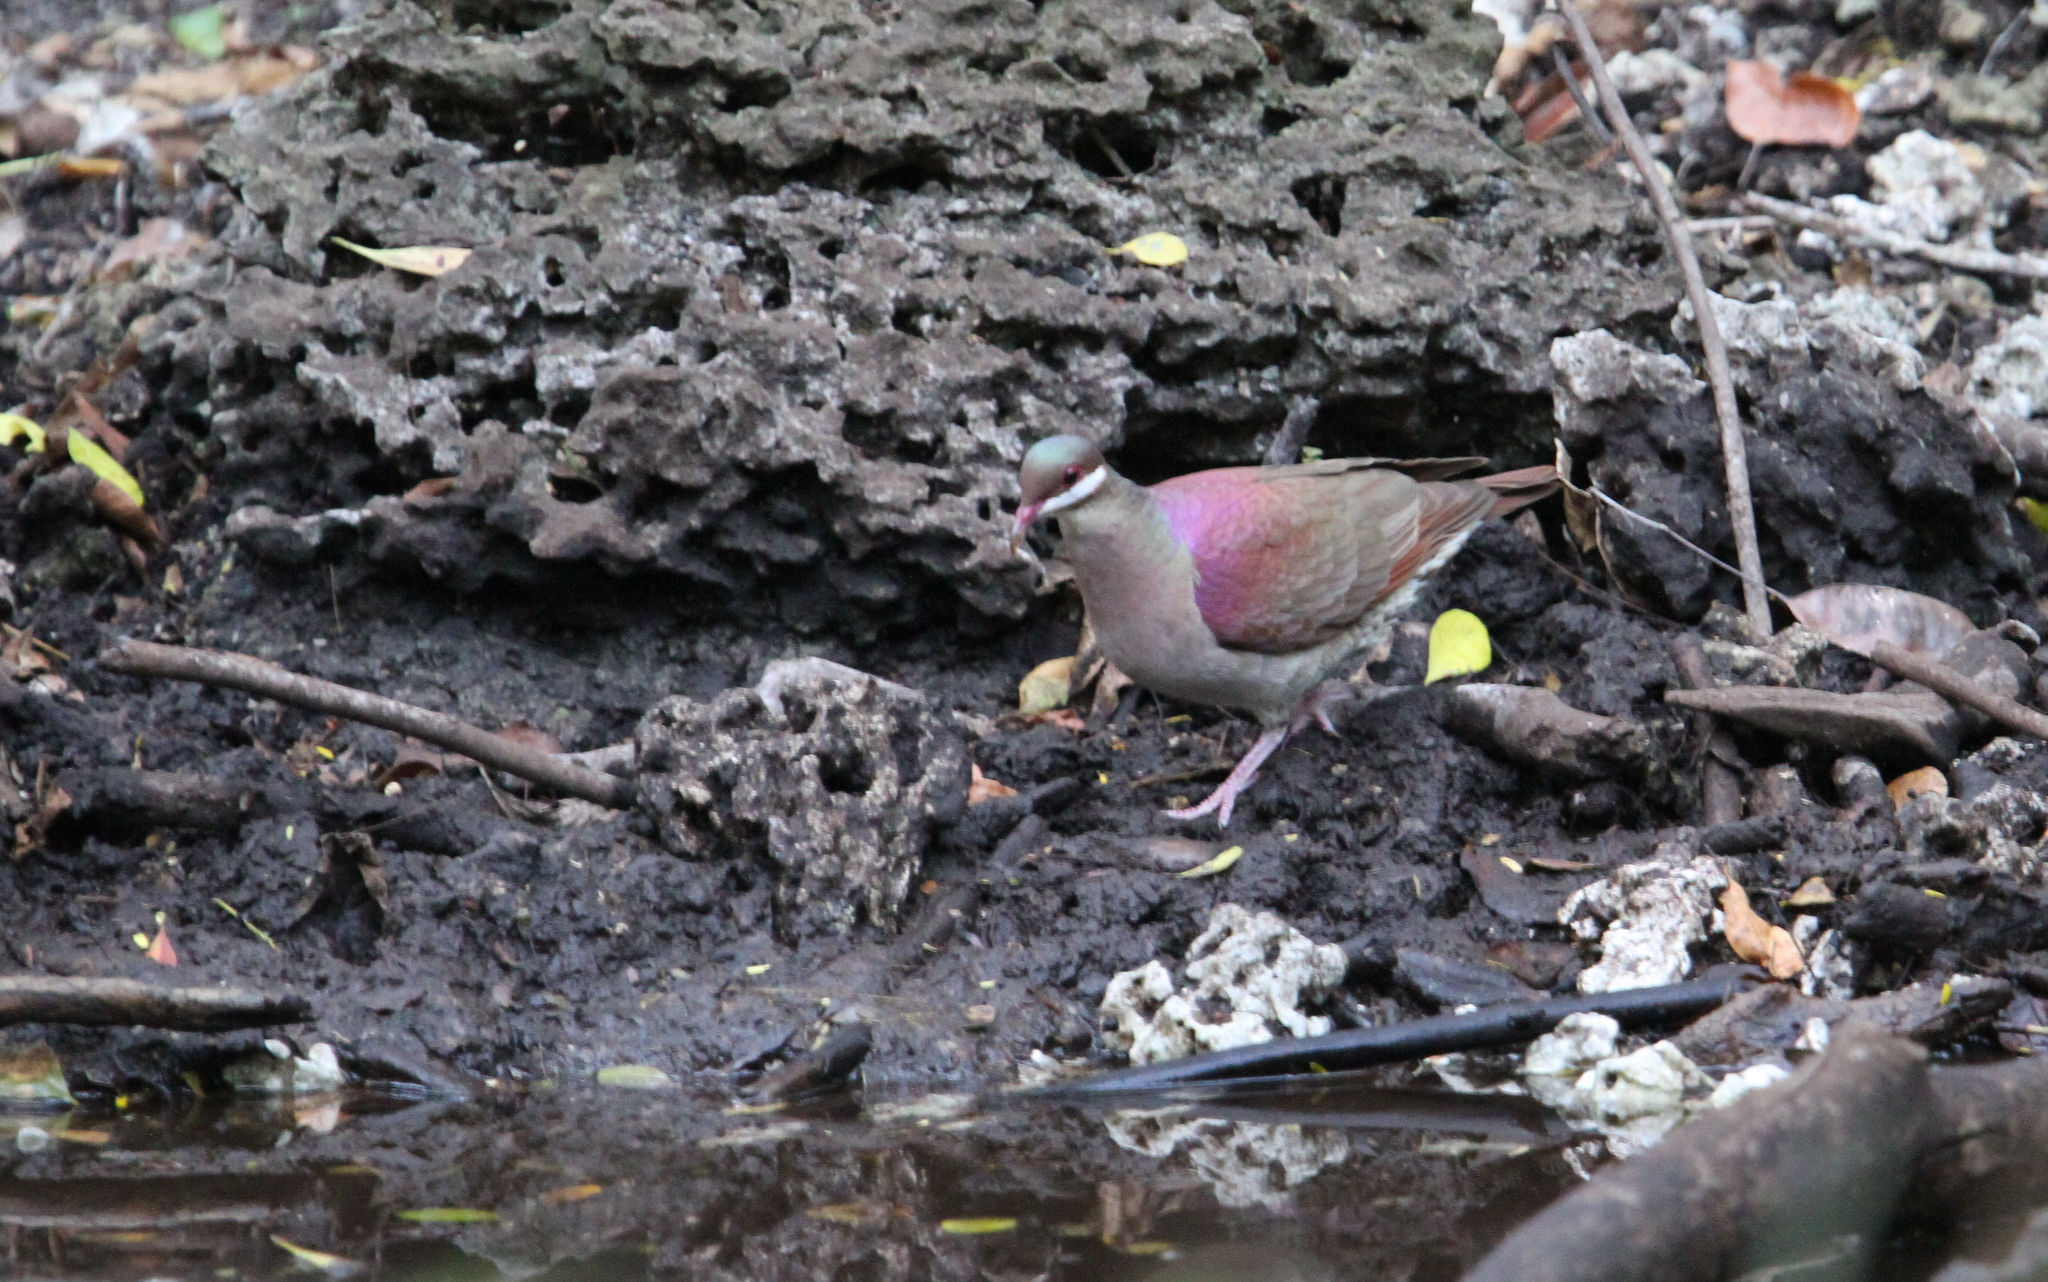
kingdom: Animalia
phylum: Chordata
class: Aves
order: Columbiformes
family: Columbidae
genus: Geotrygon
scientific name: Geotrygon chrysia
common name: Key west quail-dove
